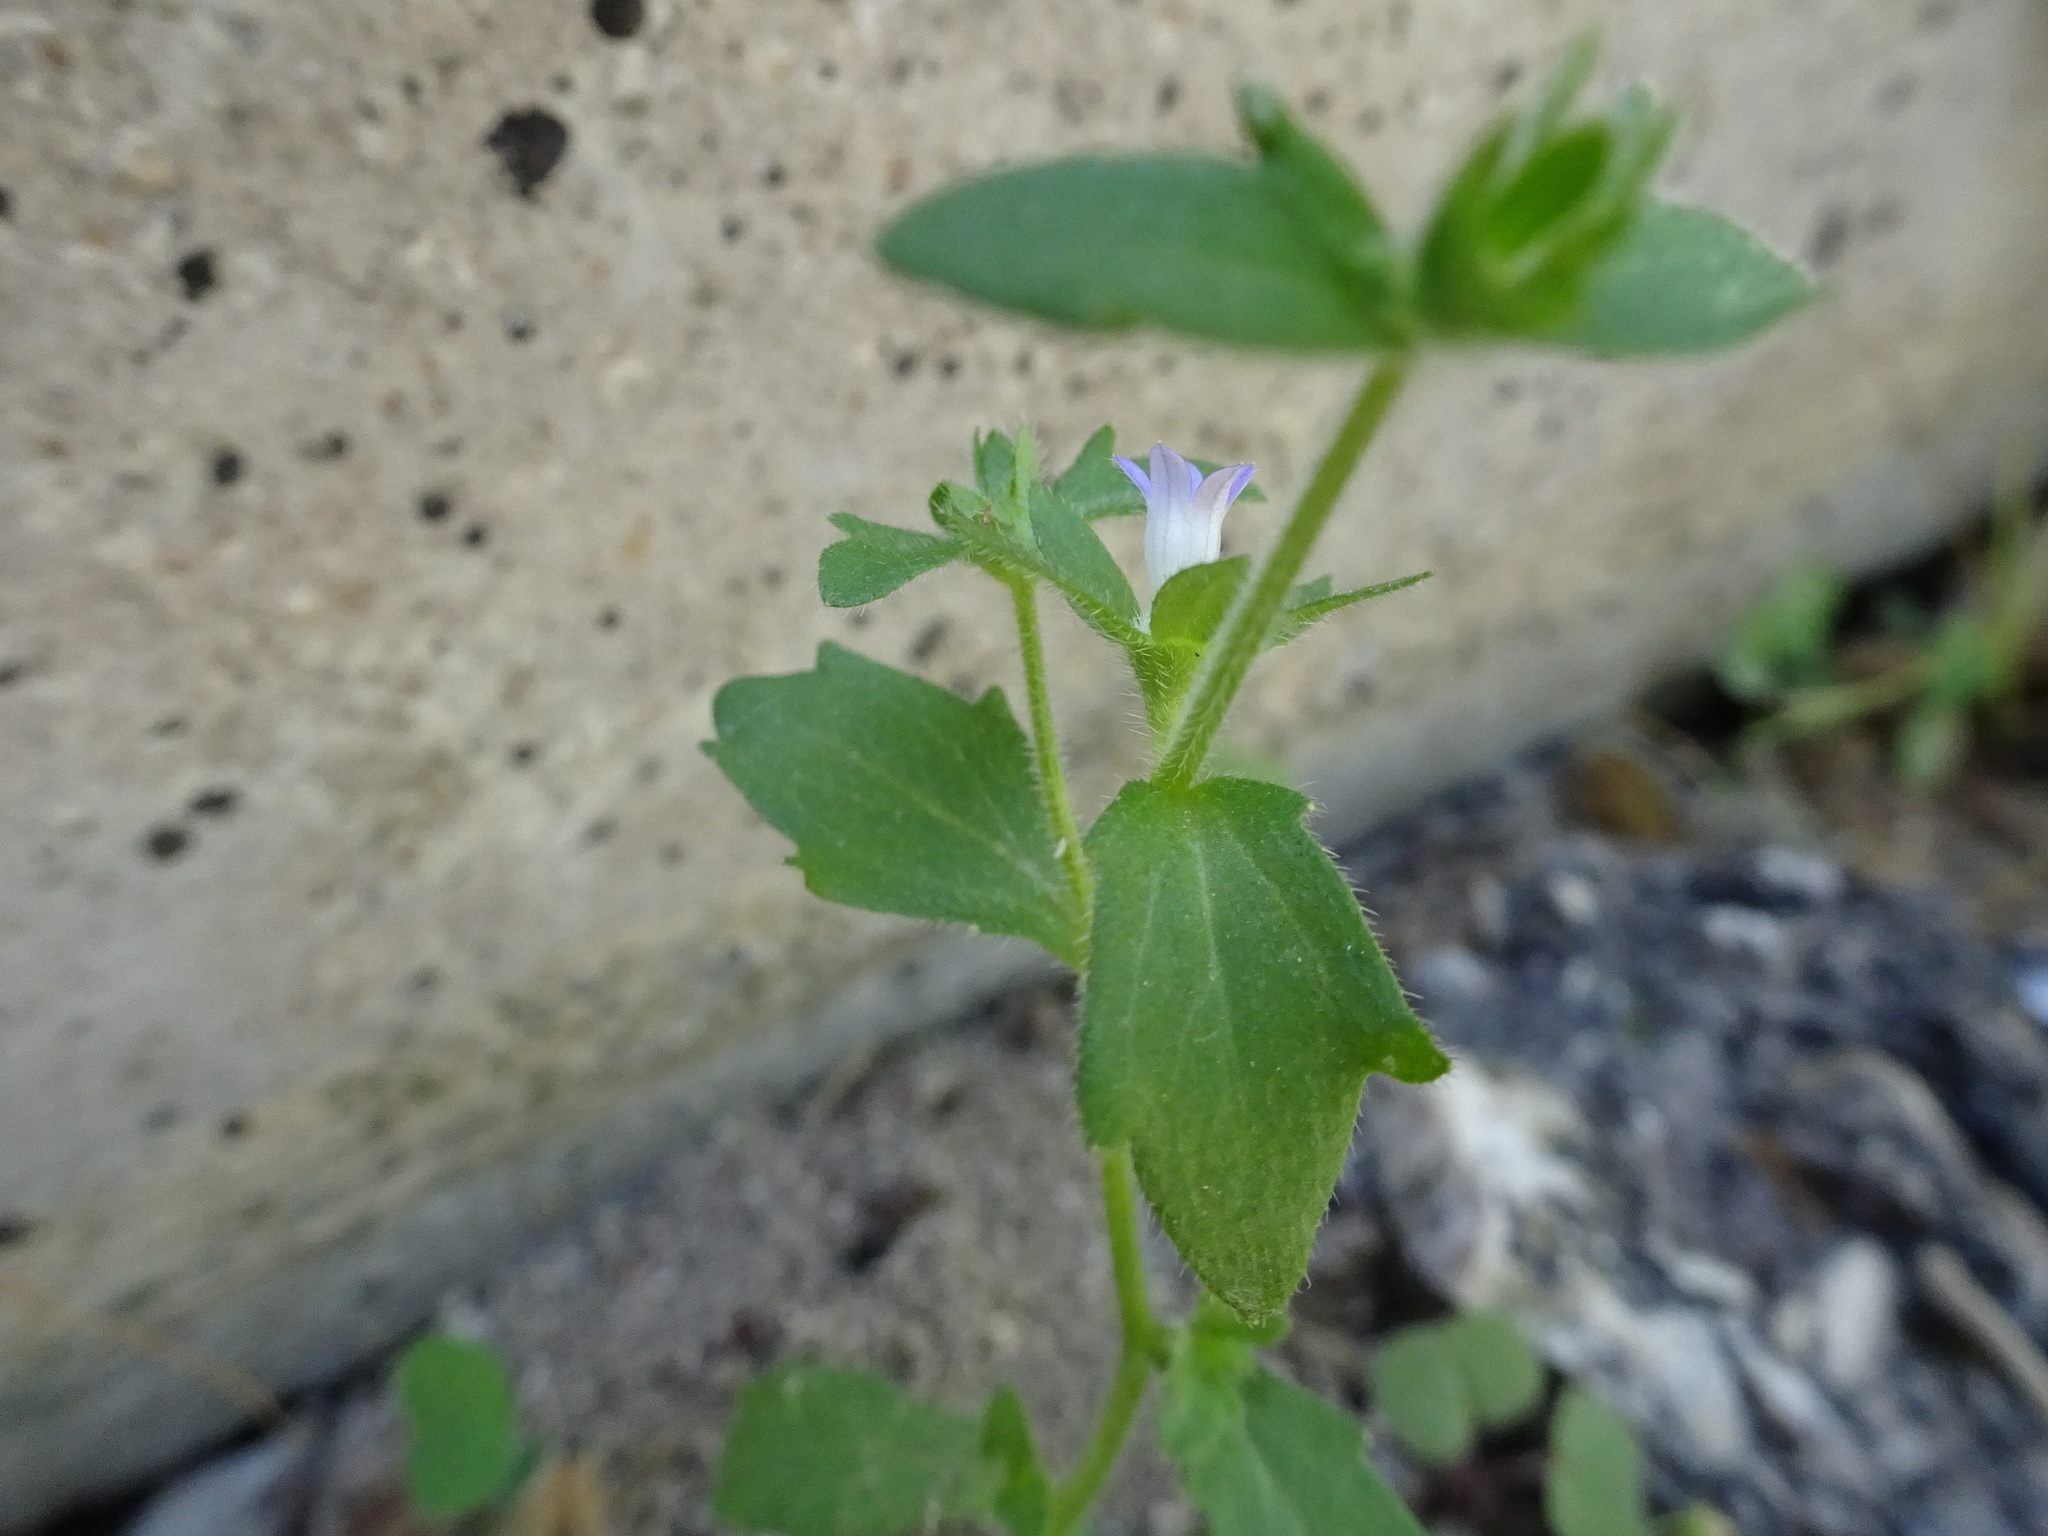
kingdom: Plantae
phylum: Tracheophyta
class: Magnoliopsida
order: Asterales
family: Campanulaceae
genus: Campanula
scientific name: Campanula erinus
